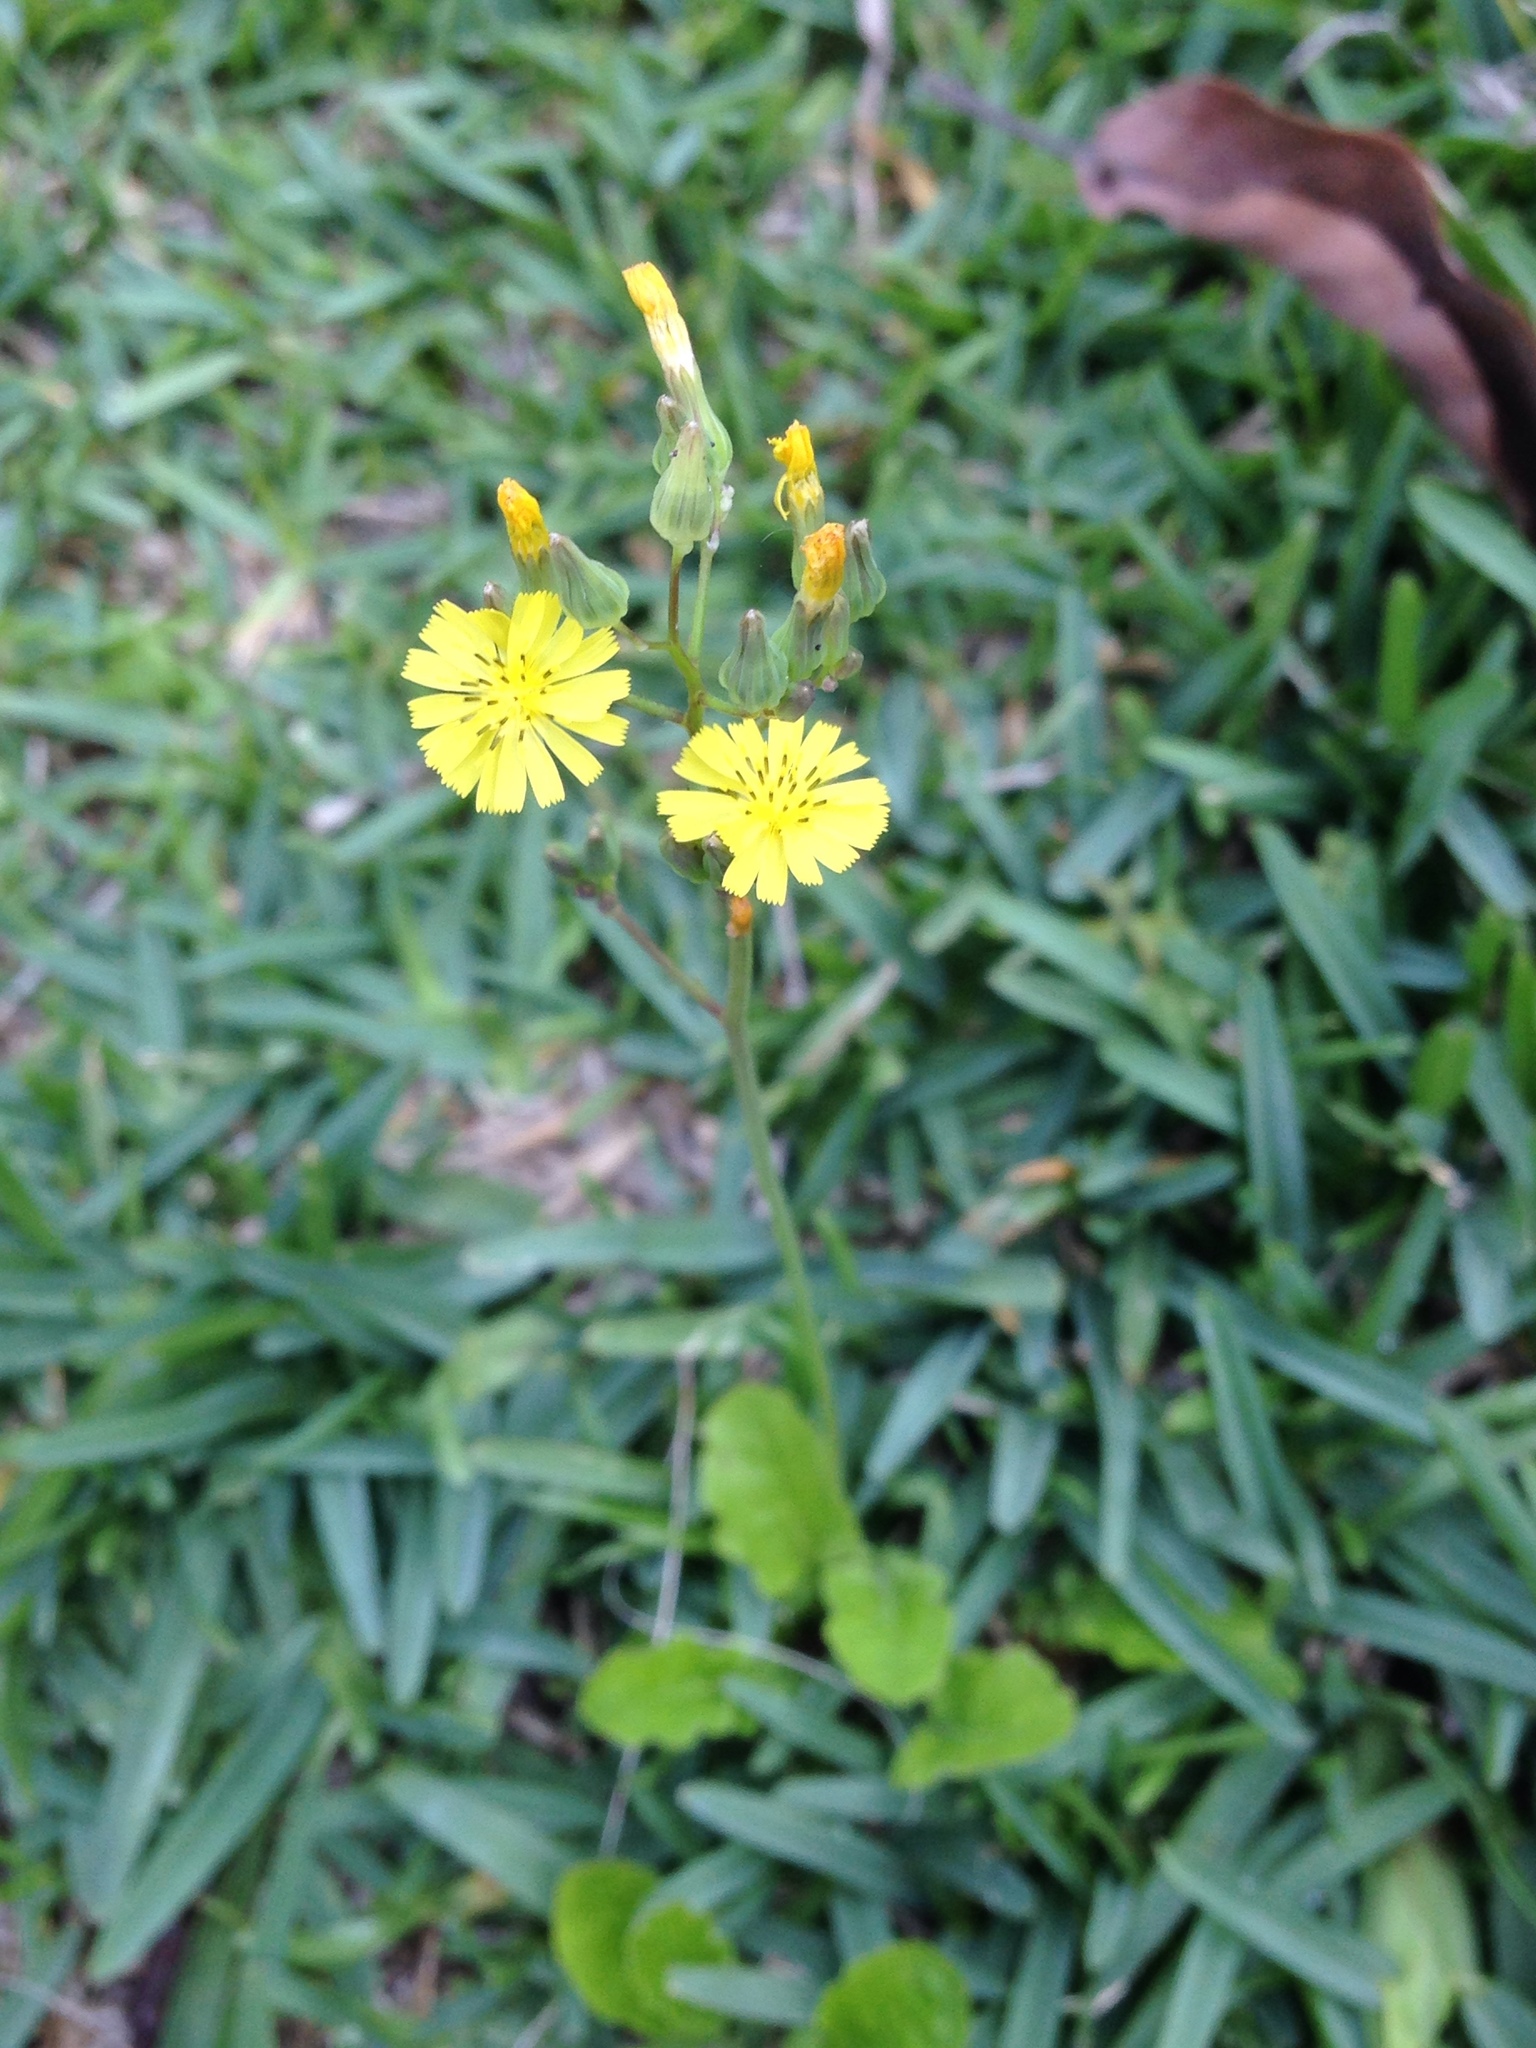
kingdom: Plantae
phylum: Tracheophyta
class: Magnoliopsida
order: Asterales
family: Asteraceae
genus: Youngia
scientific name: Youngia japonica
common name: Oriental false hawksbeard
